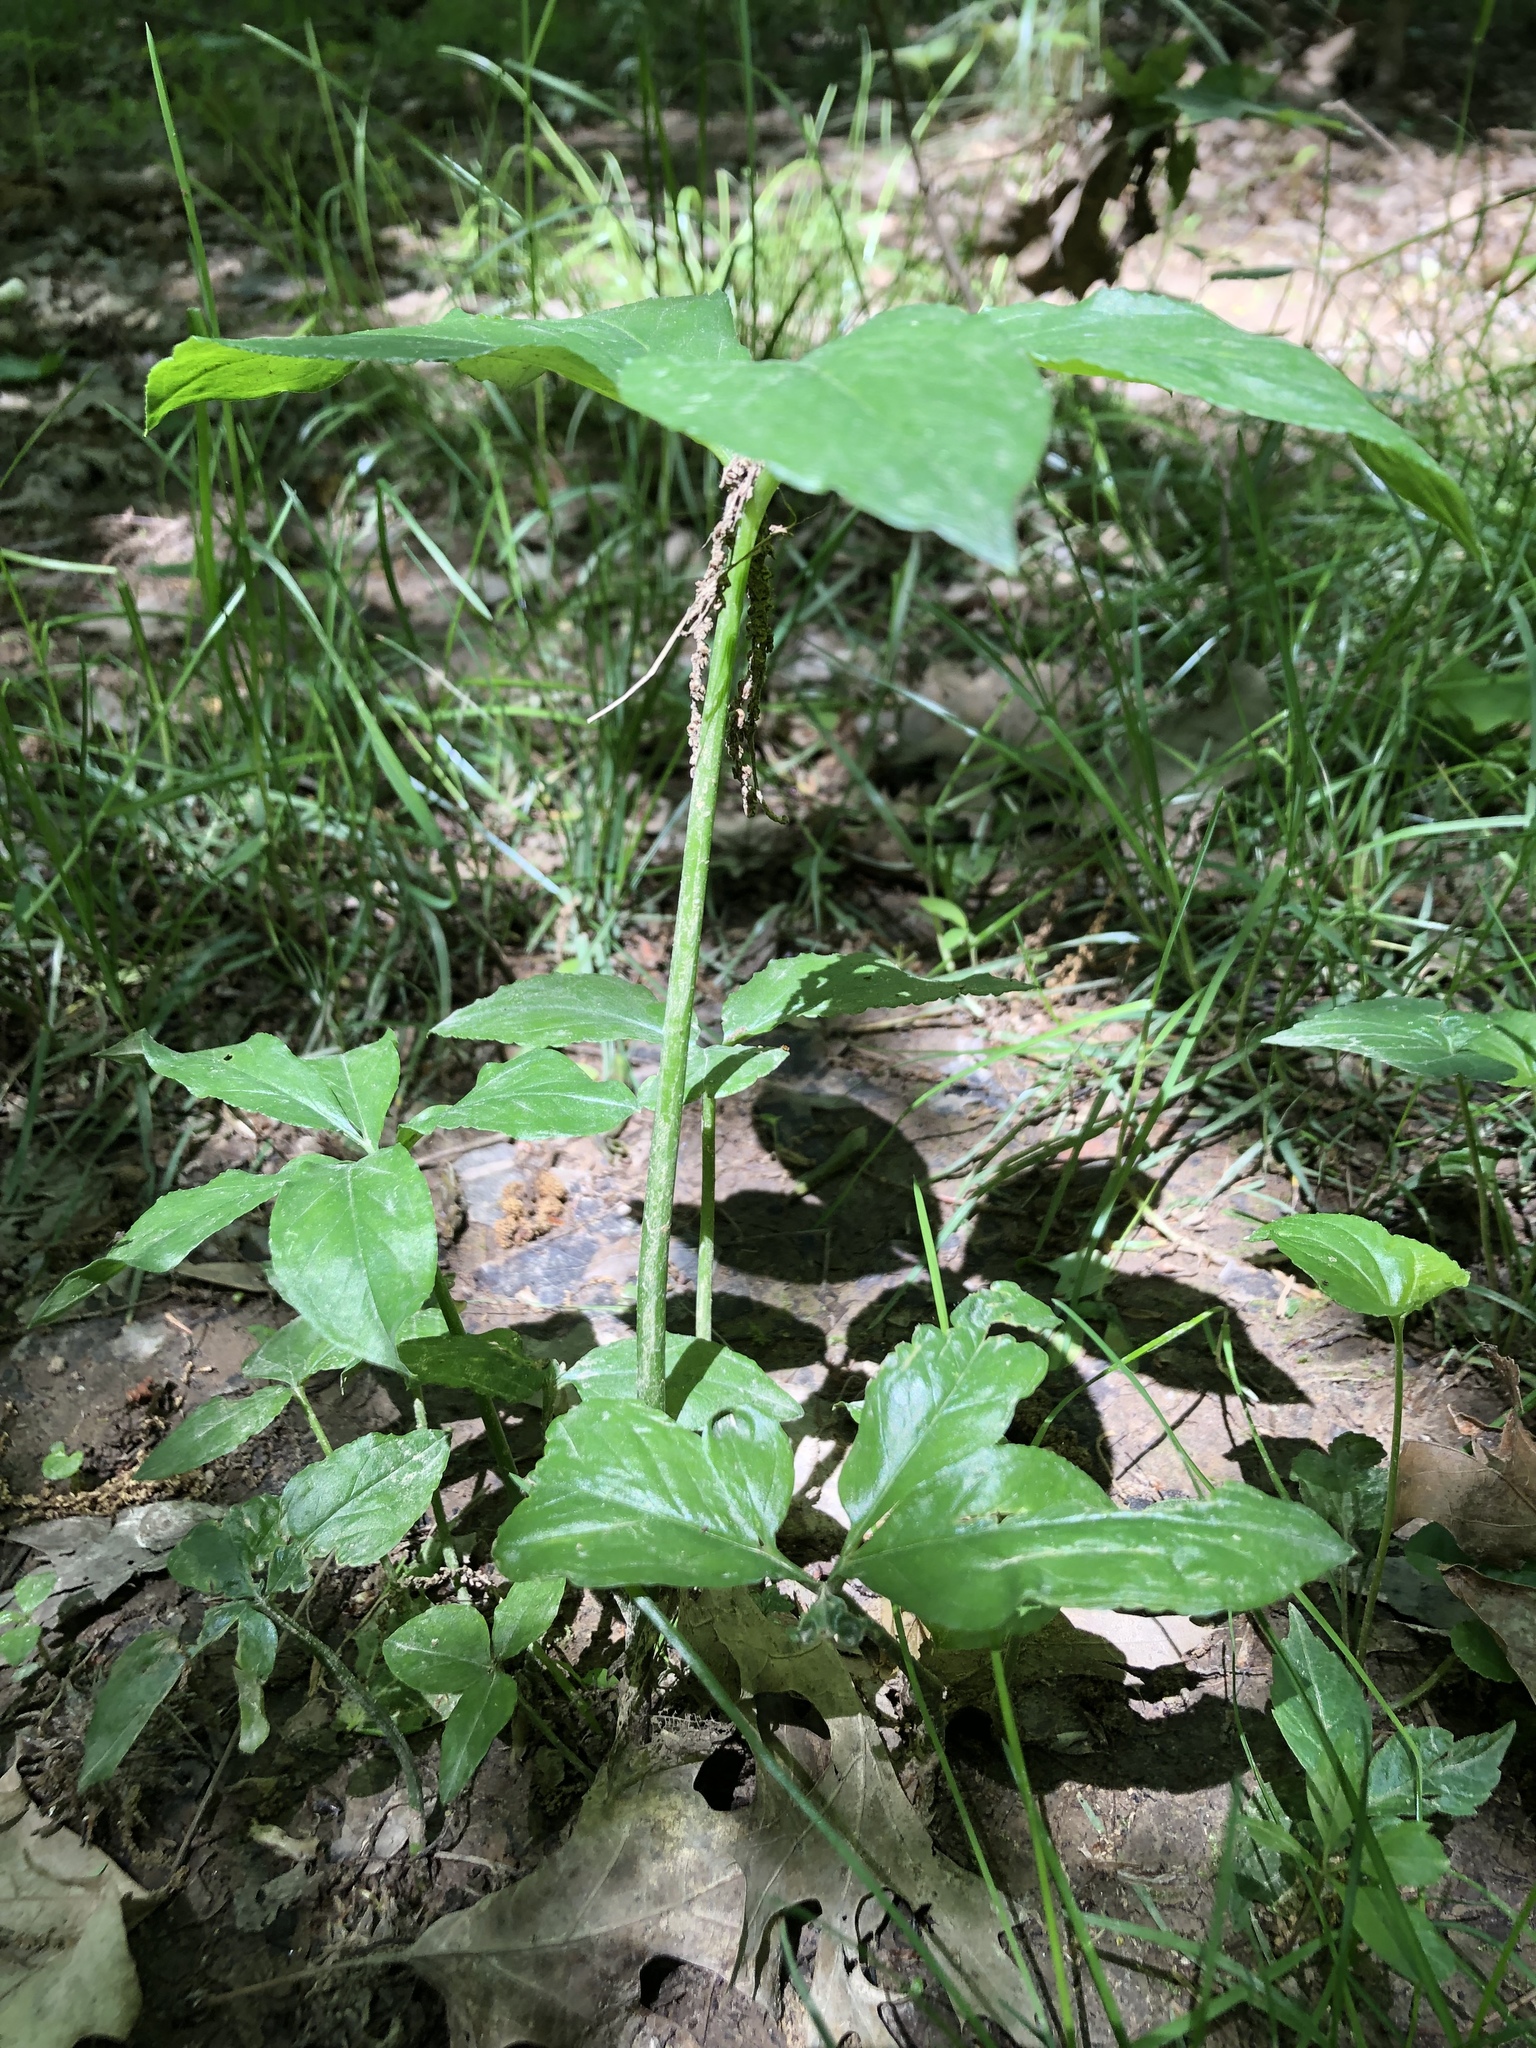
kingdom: Plantae
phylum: Tracheophyta
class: Liliopsida
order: Alismatales
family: Araceae
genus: Arisaema
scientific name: Arisaema dracontium
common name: Dragon-arum
